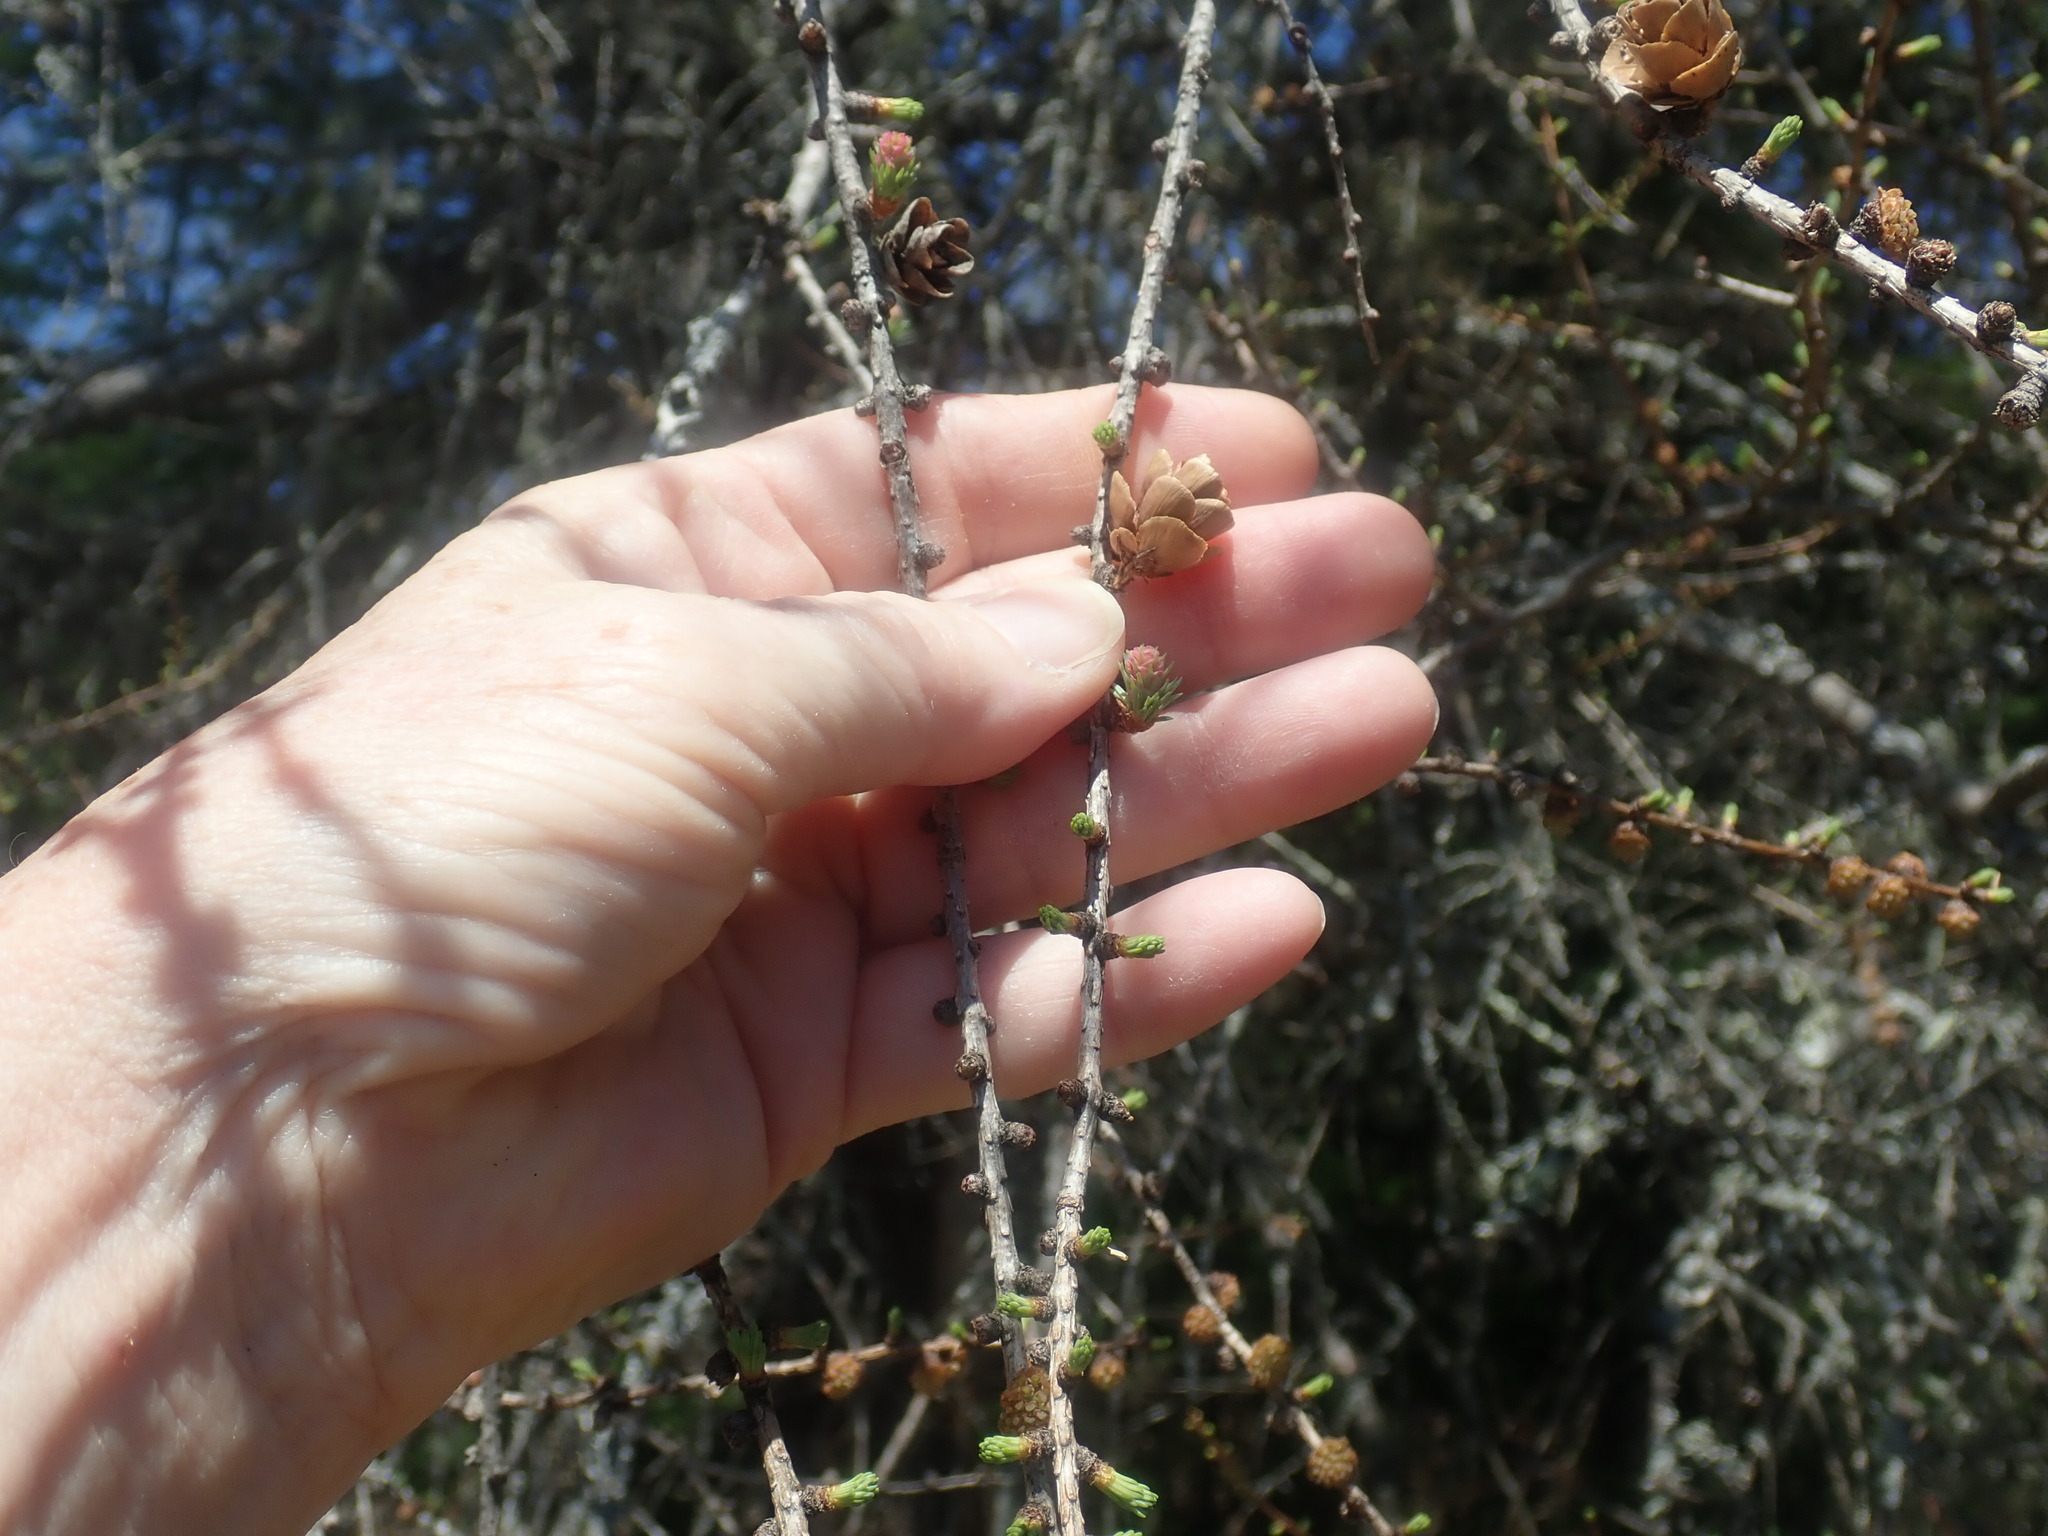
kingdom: Plantae
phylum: Tracheophyta
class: Pinopsida
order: Pinales
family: Pinaceae
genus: Larix
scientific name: Larix laricina
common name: American larch
